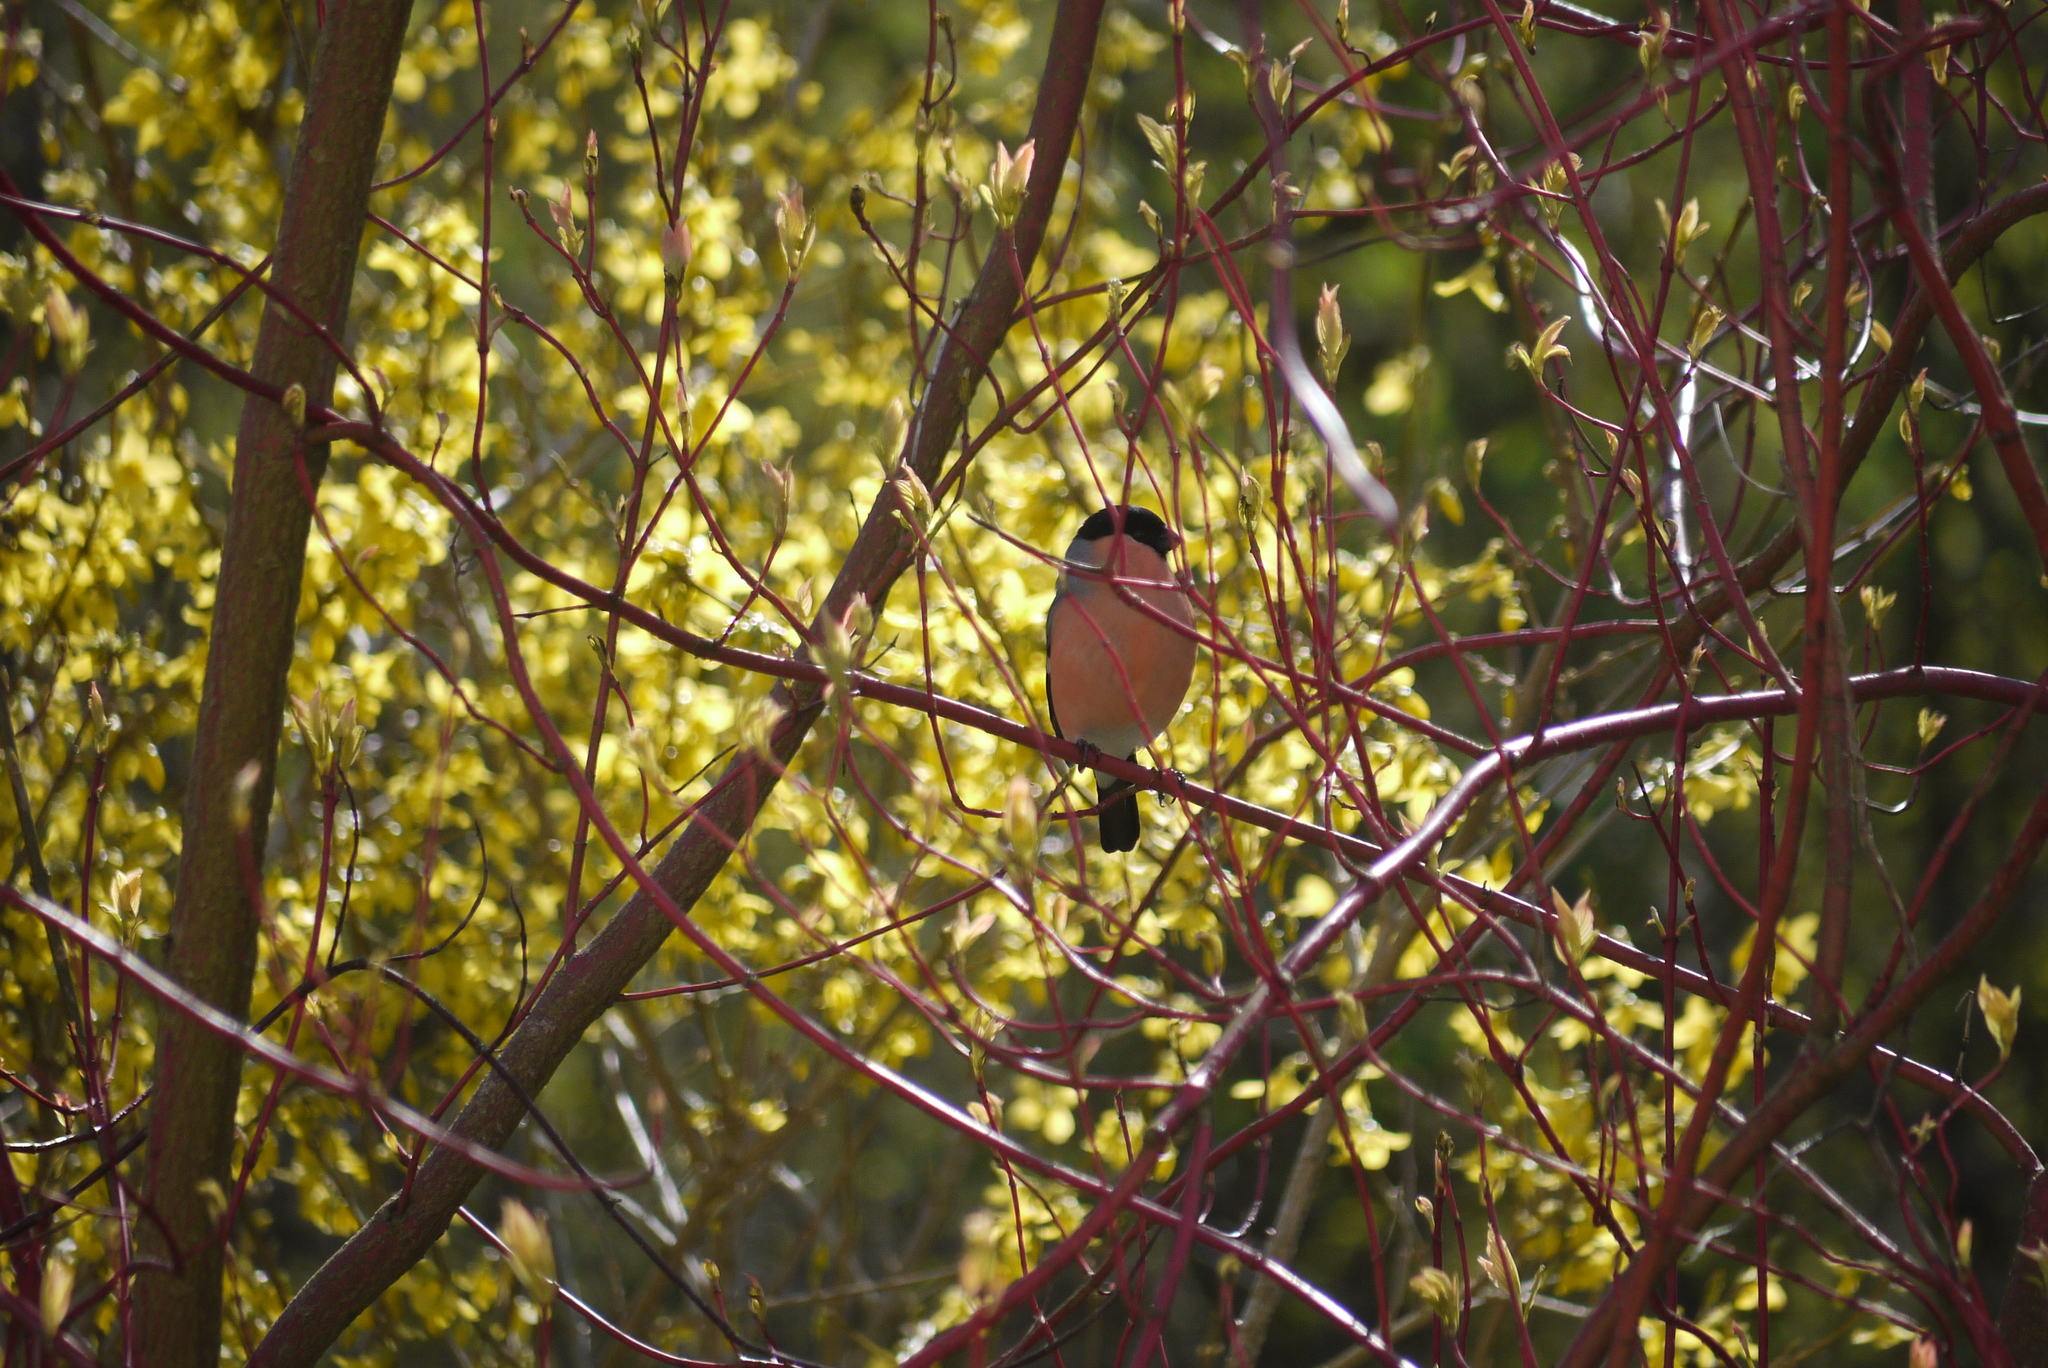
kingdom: Animalia
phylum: Chordata
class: Aves
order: Passeriformes
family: Fringillidae
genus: Pyrrhula
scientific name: Pyrrhula pyrrhula
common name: Eurasian bullfinch
